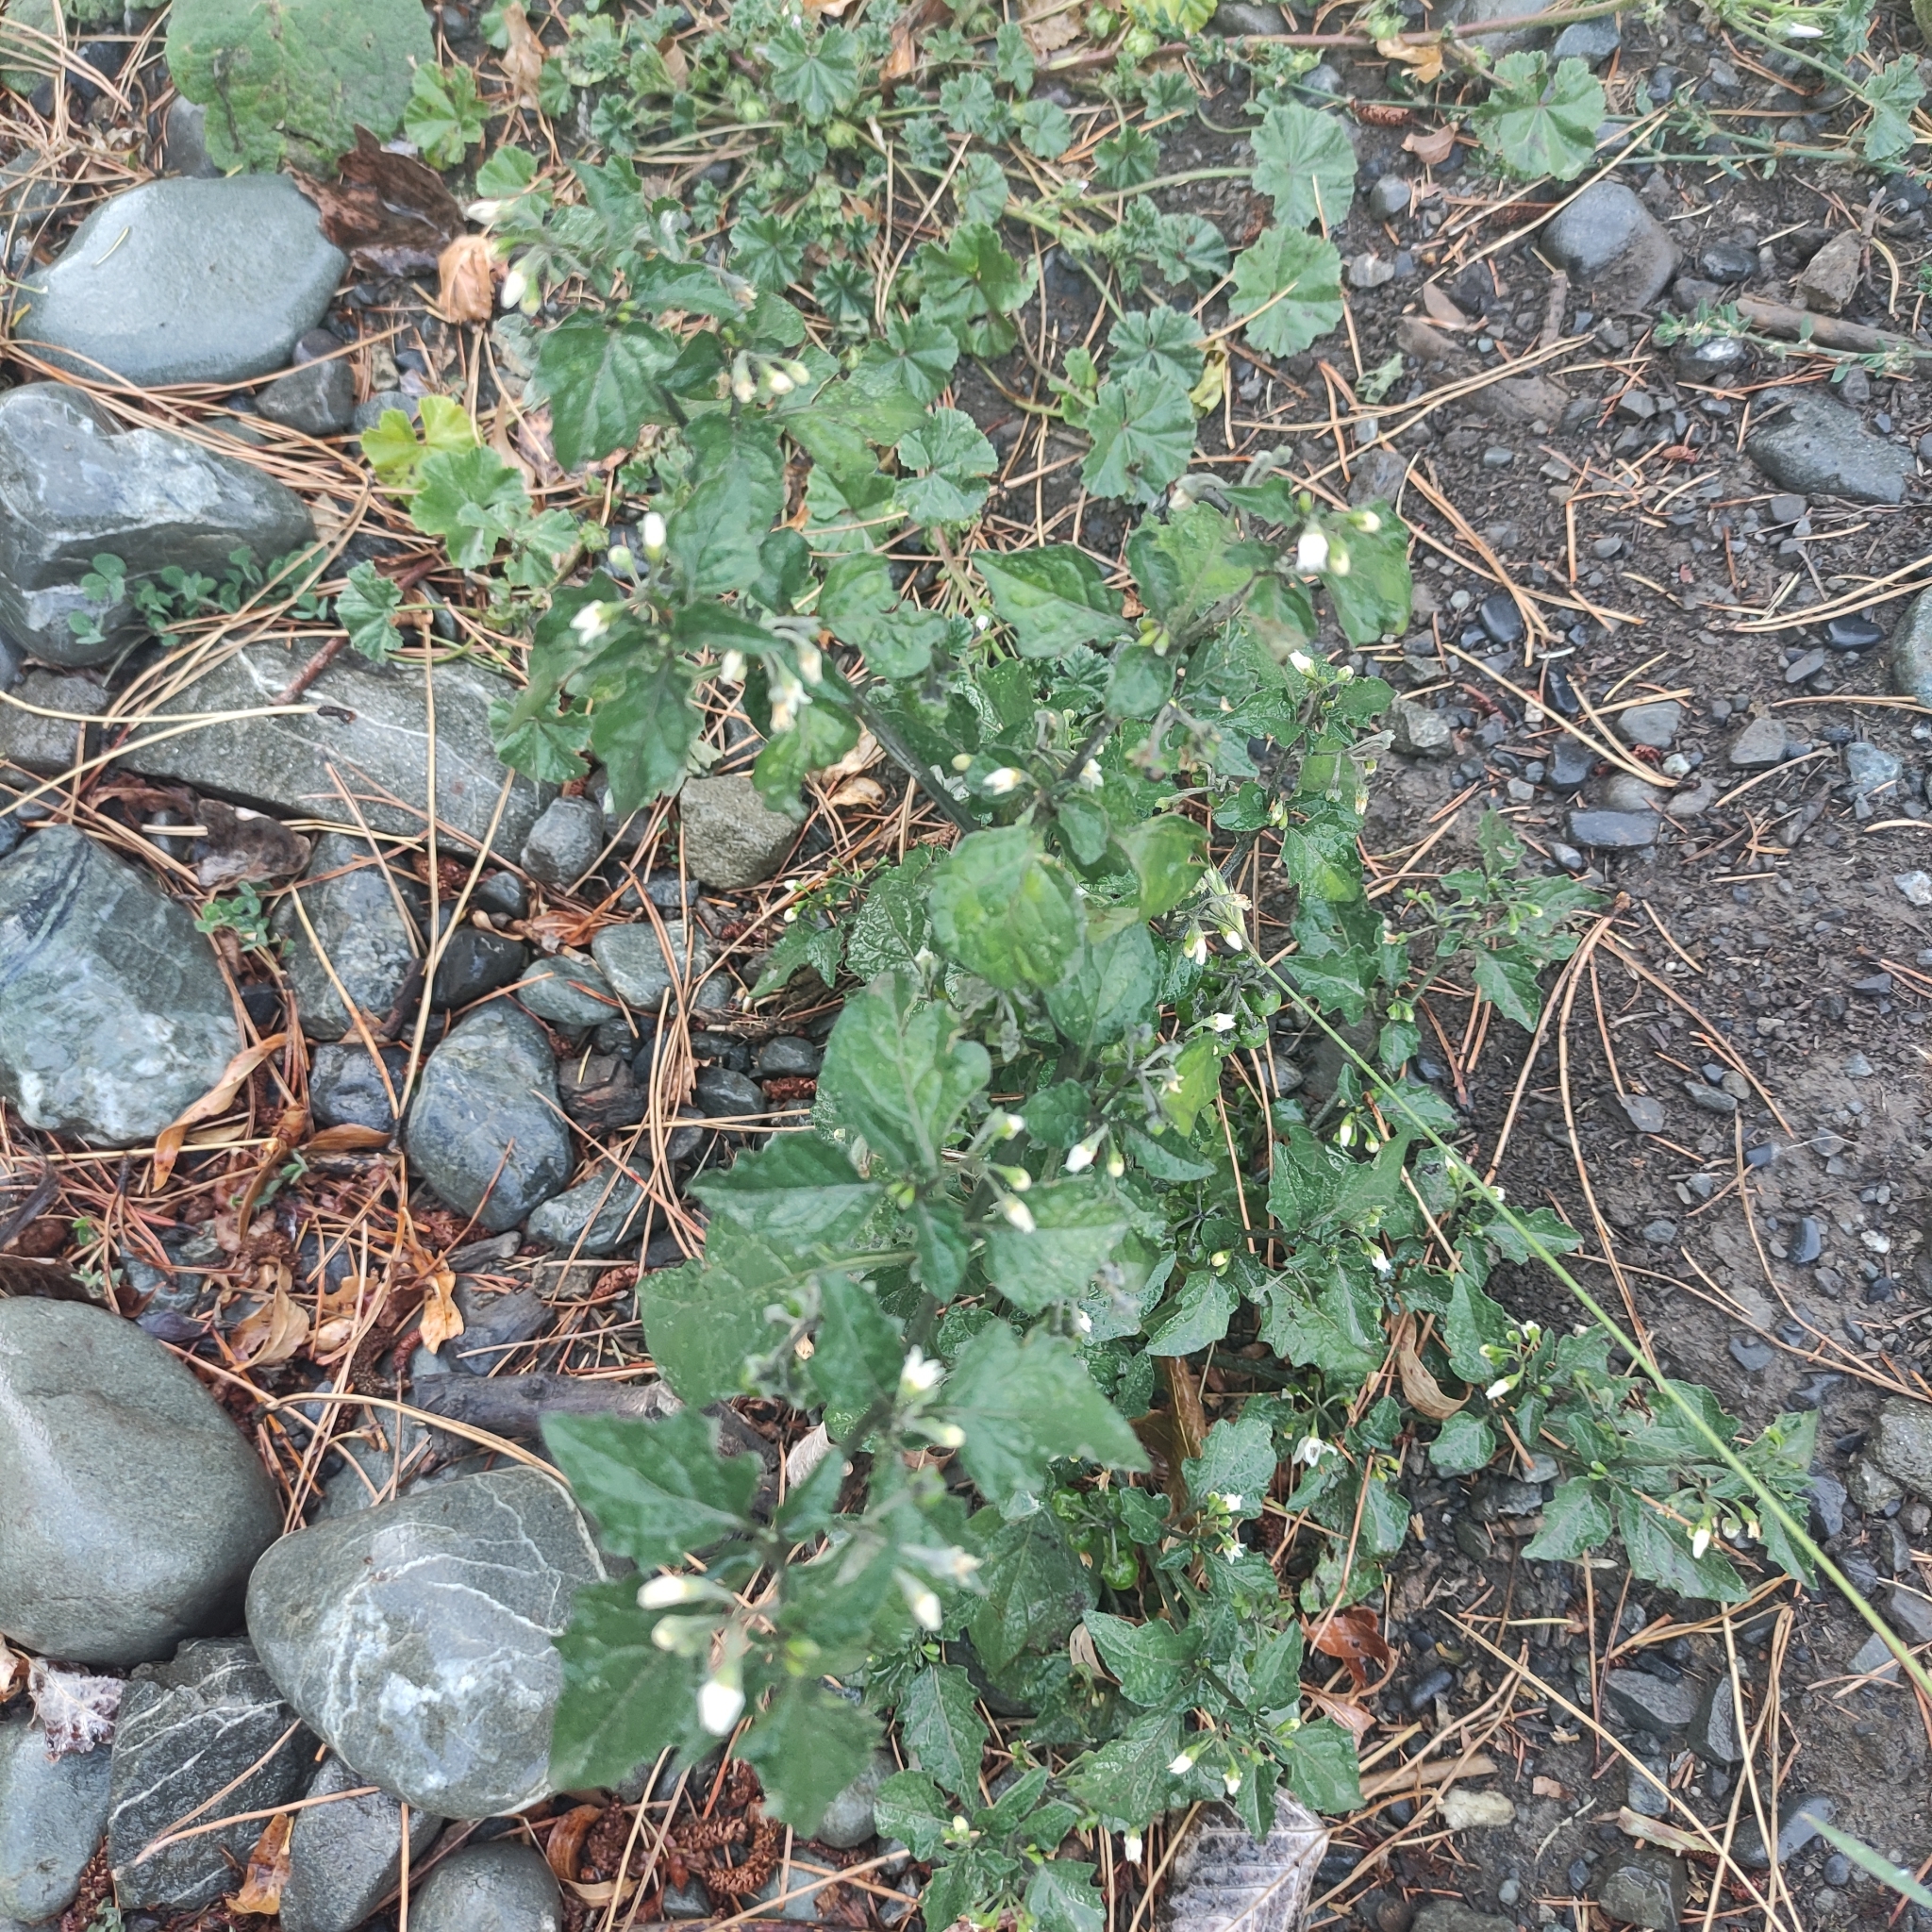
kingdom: Plantae
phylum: Tracheophyta
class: Magnoliopsida
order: Solanales
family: Solanaceae
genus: Solanum
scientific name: Solanum nigrum
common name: Black nightshade
